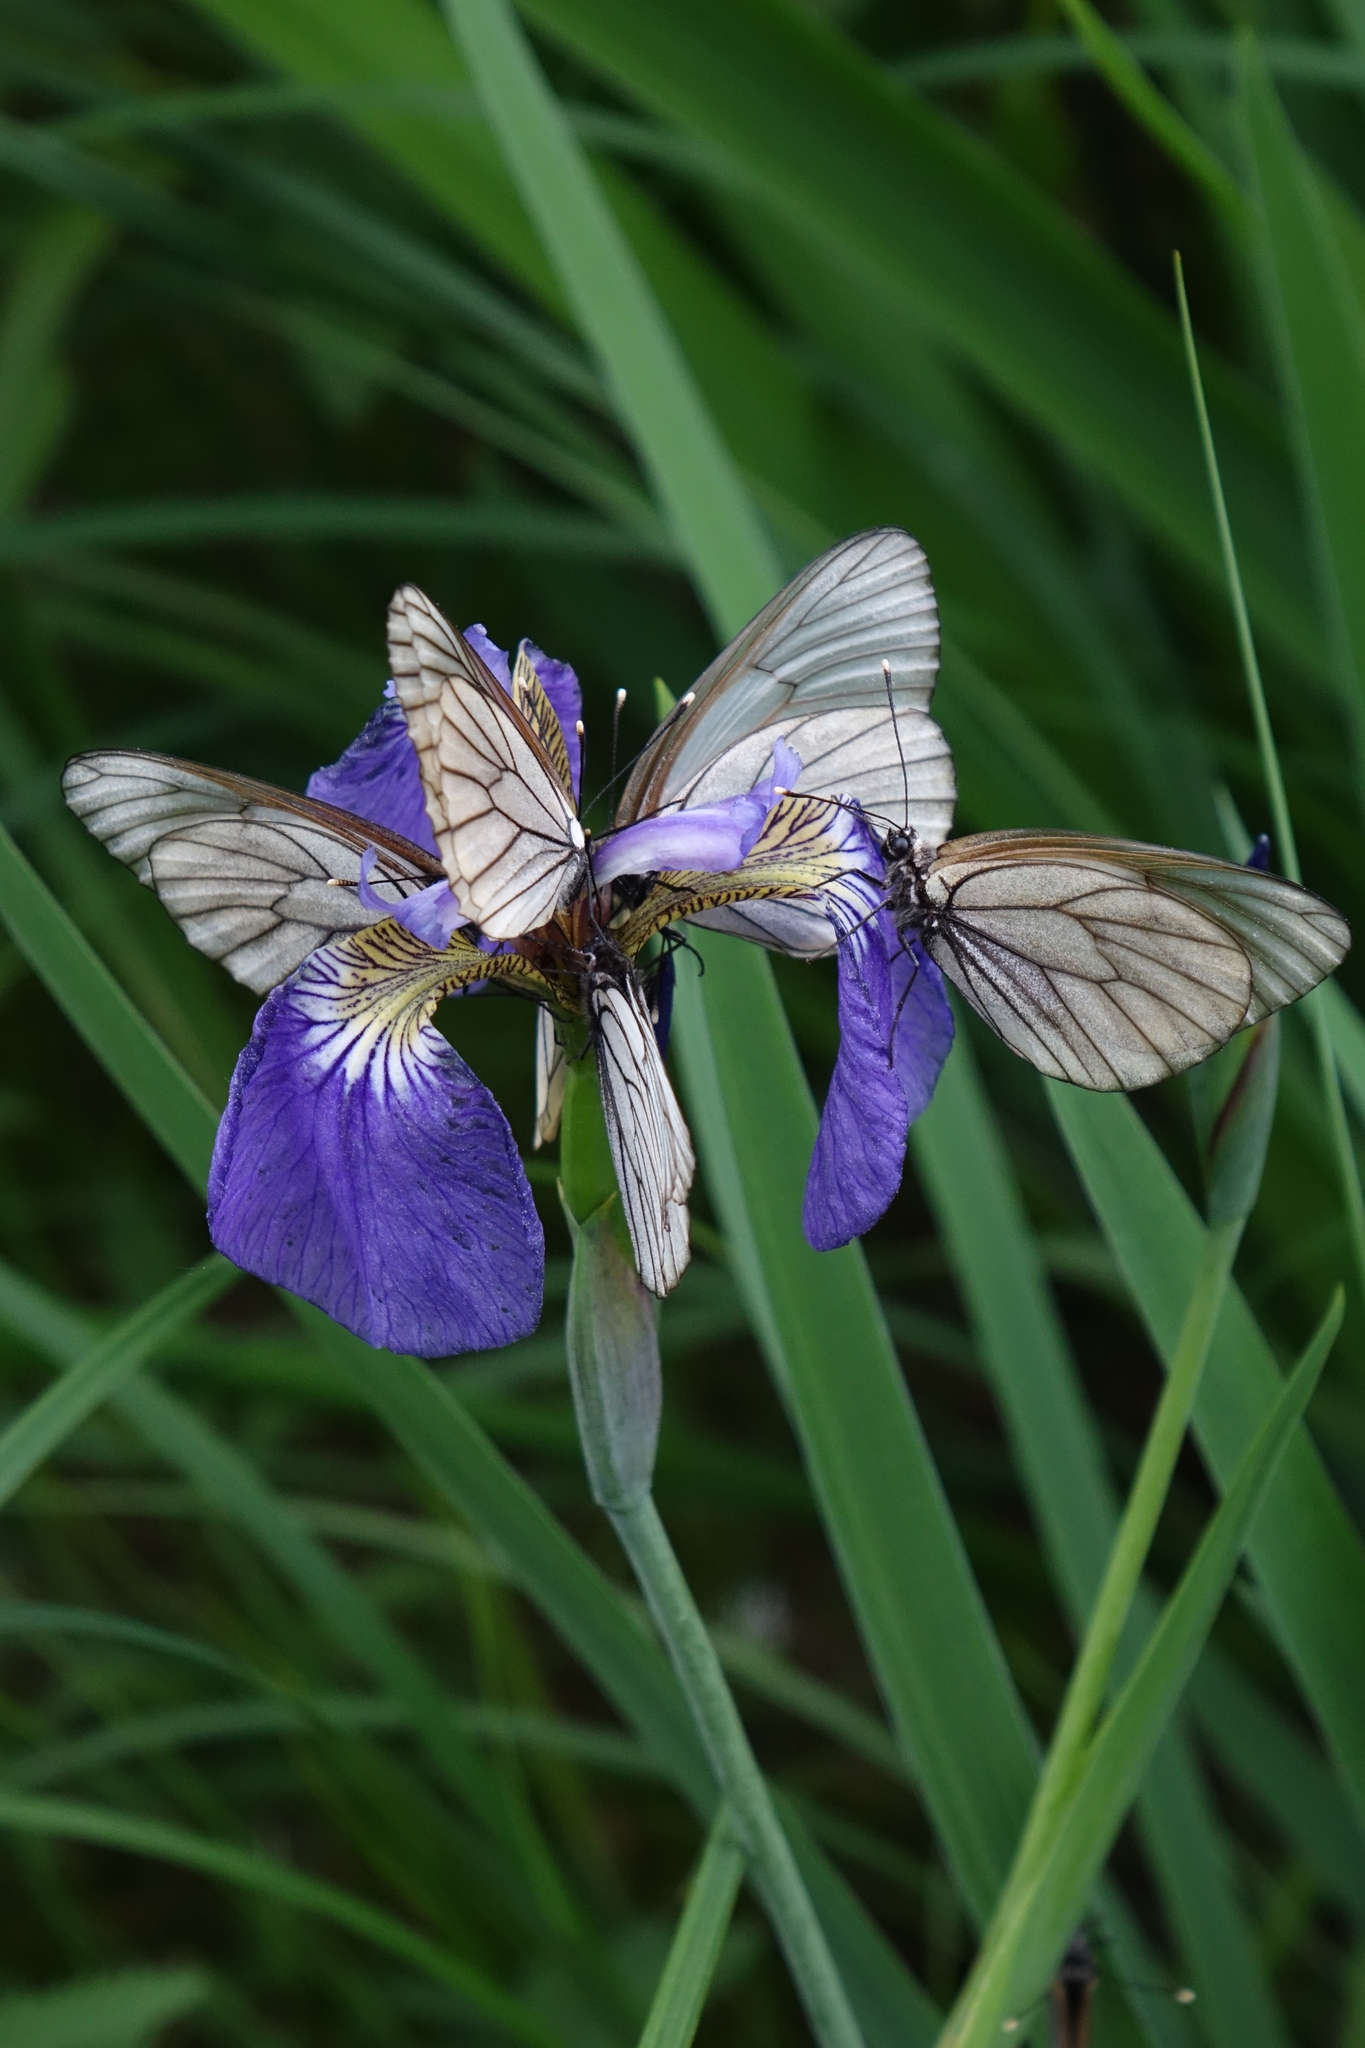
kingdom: Animalia
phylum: Arthropoda
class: Insecta
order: Lepidoptera
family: Pieridae
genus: Aporia
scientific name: Aporia crataegi
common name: Black-veined white
